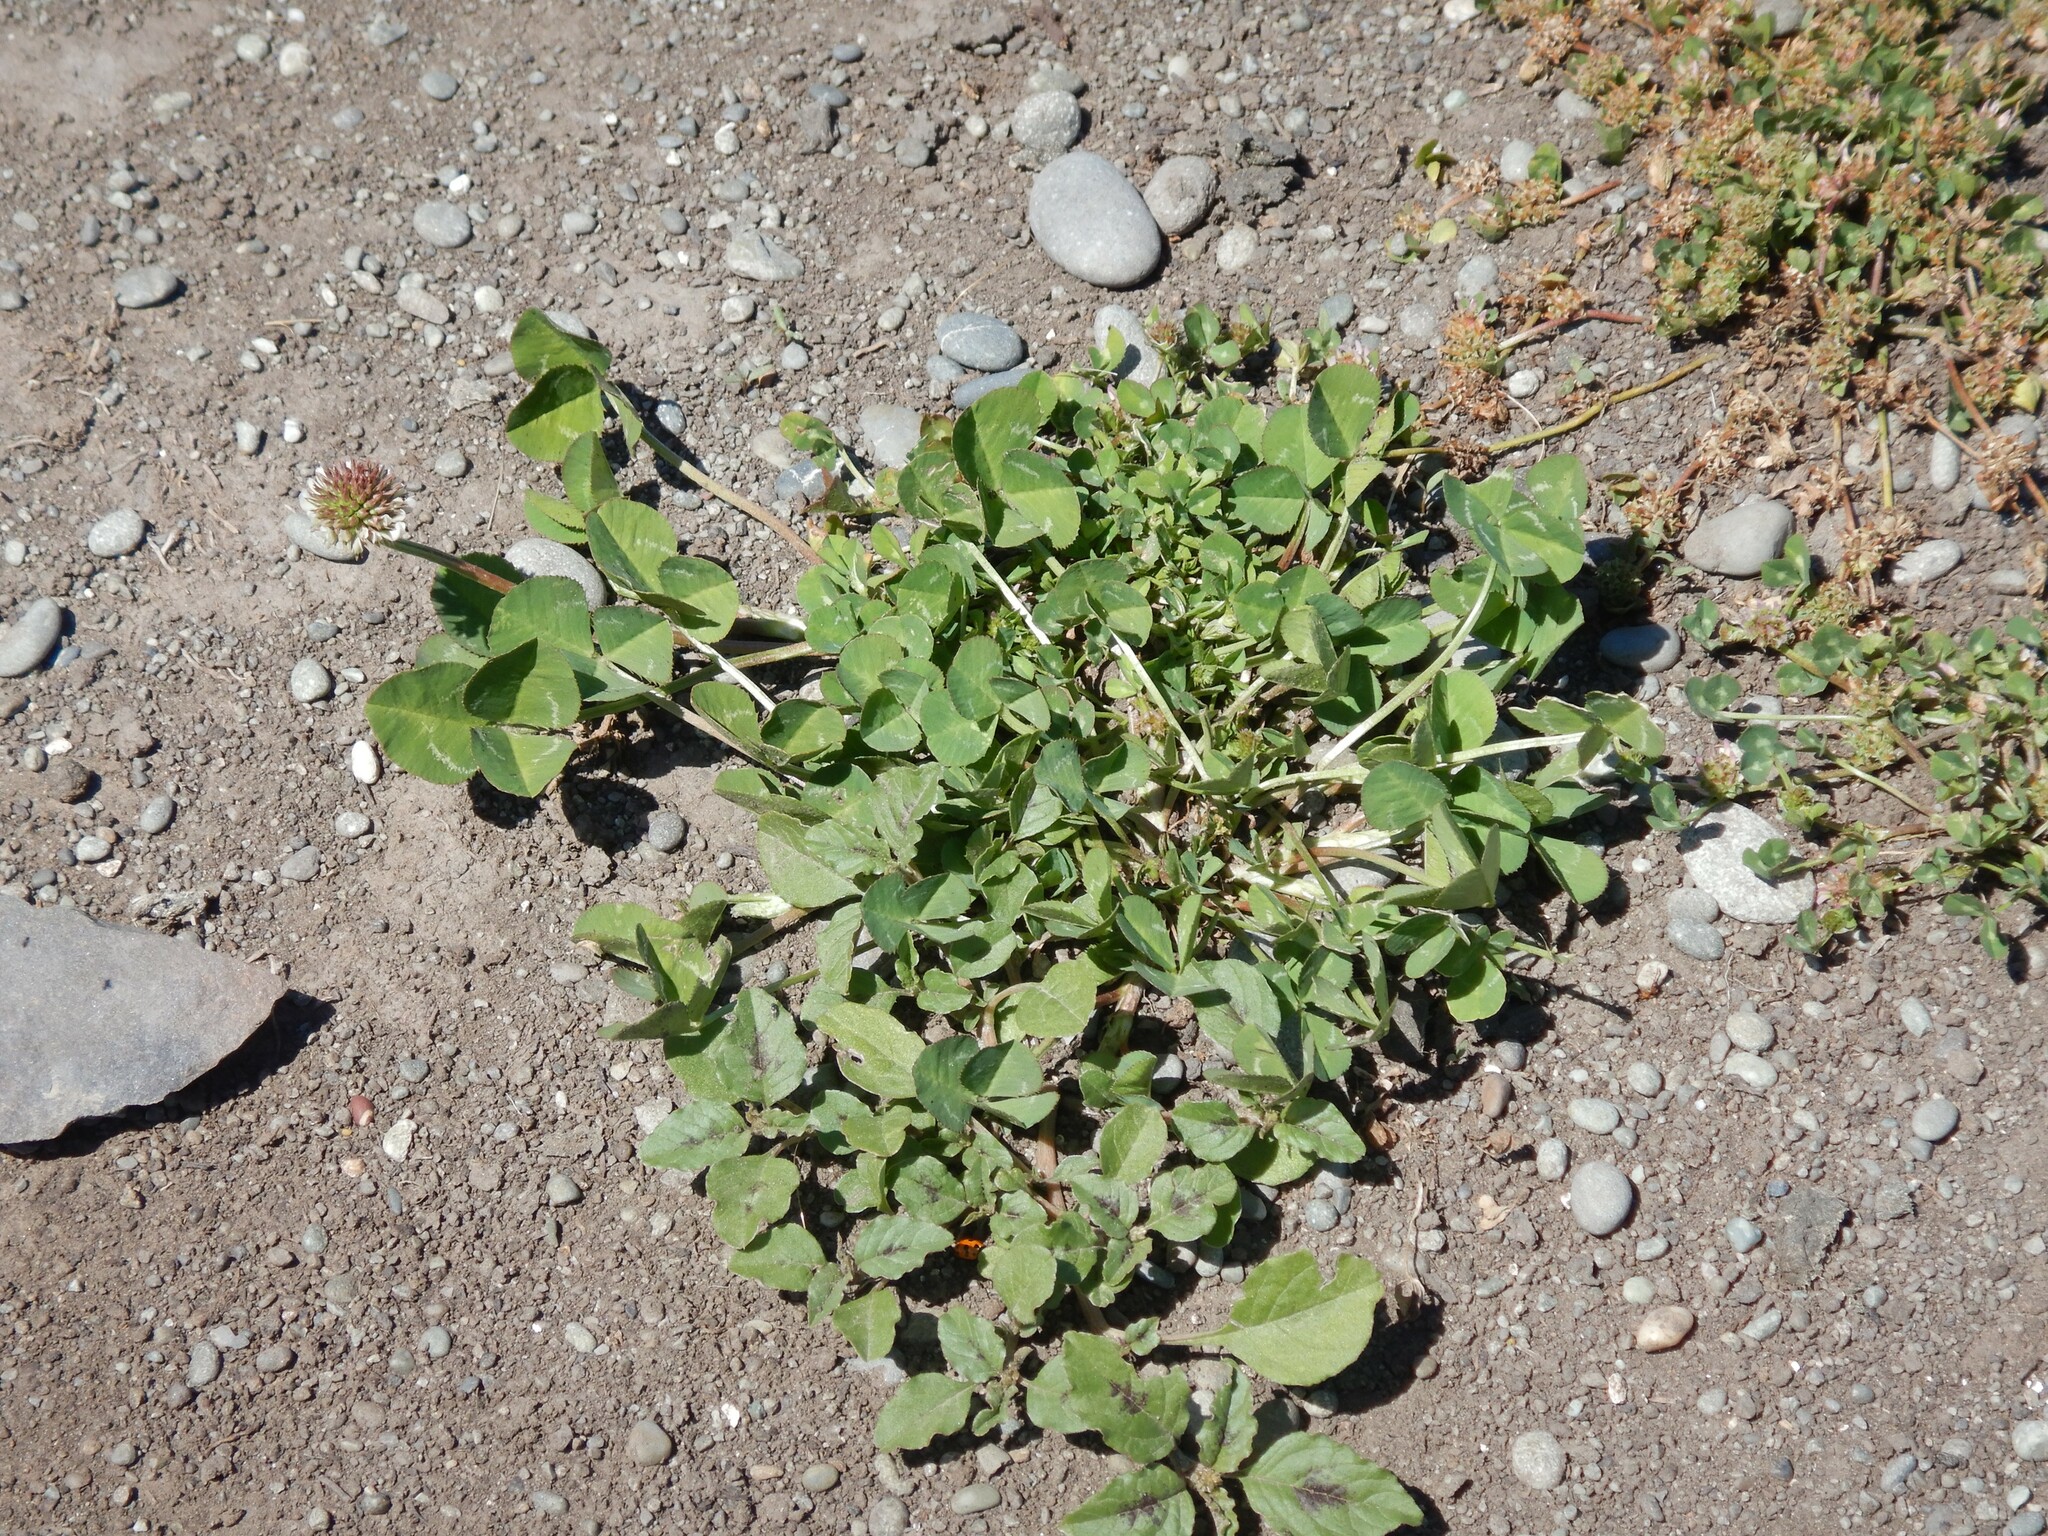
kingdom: Plantae
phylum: Tracheophyta
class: Magnoliopsida
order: Fabales
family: Fabaceae
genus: Trifolium
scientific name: Trifolium repens
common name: White clover
